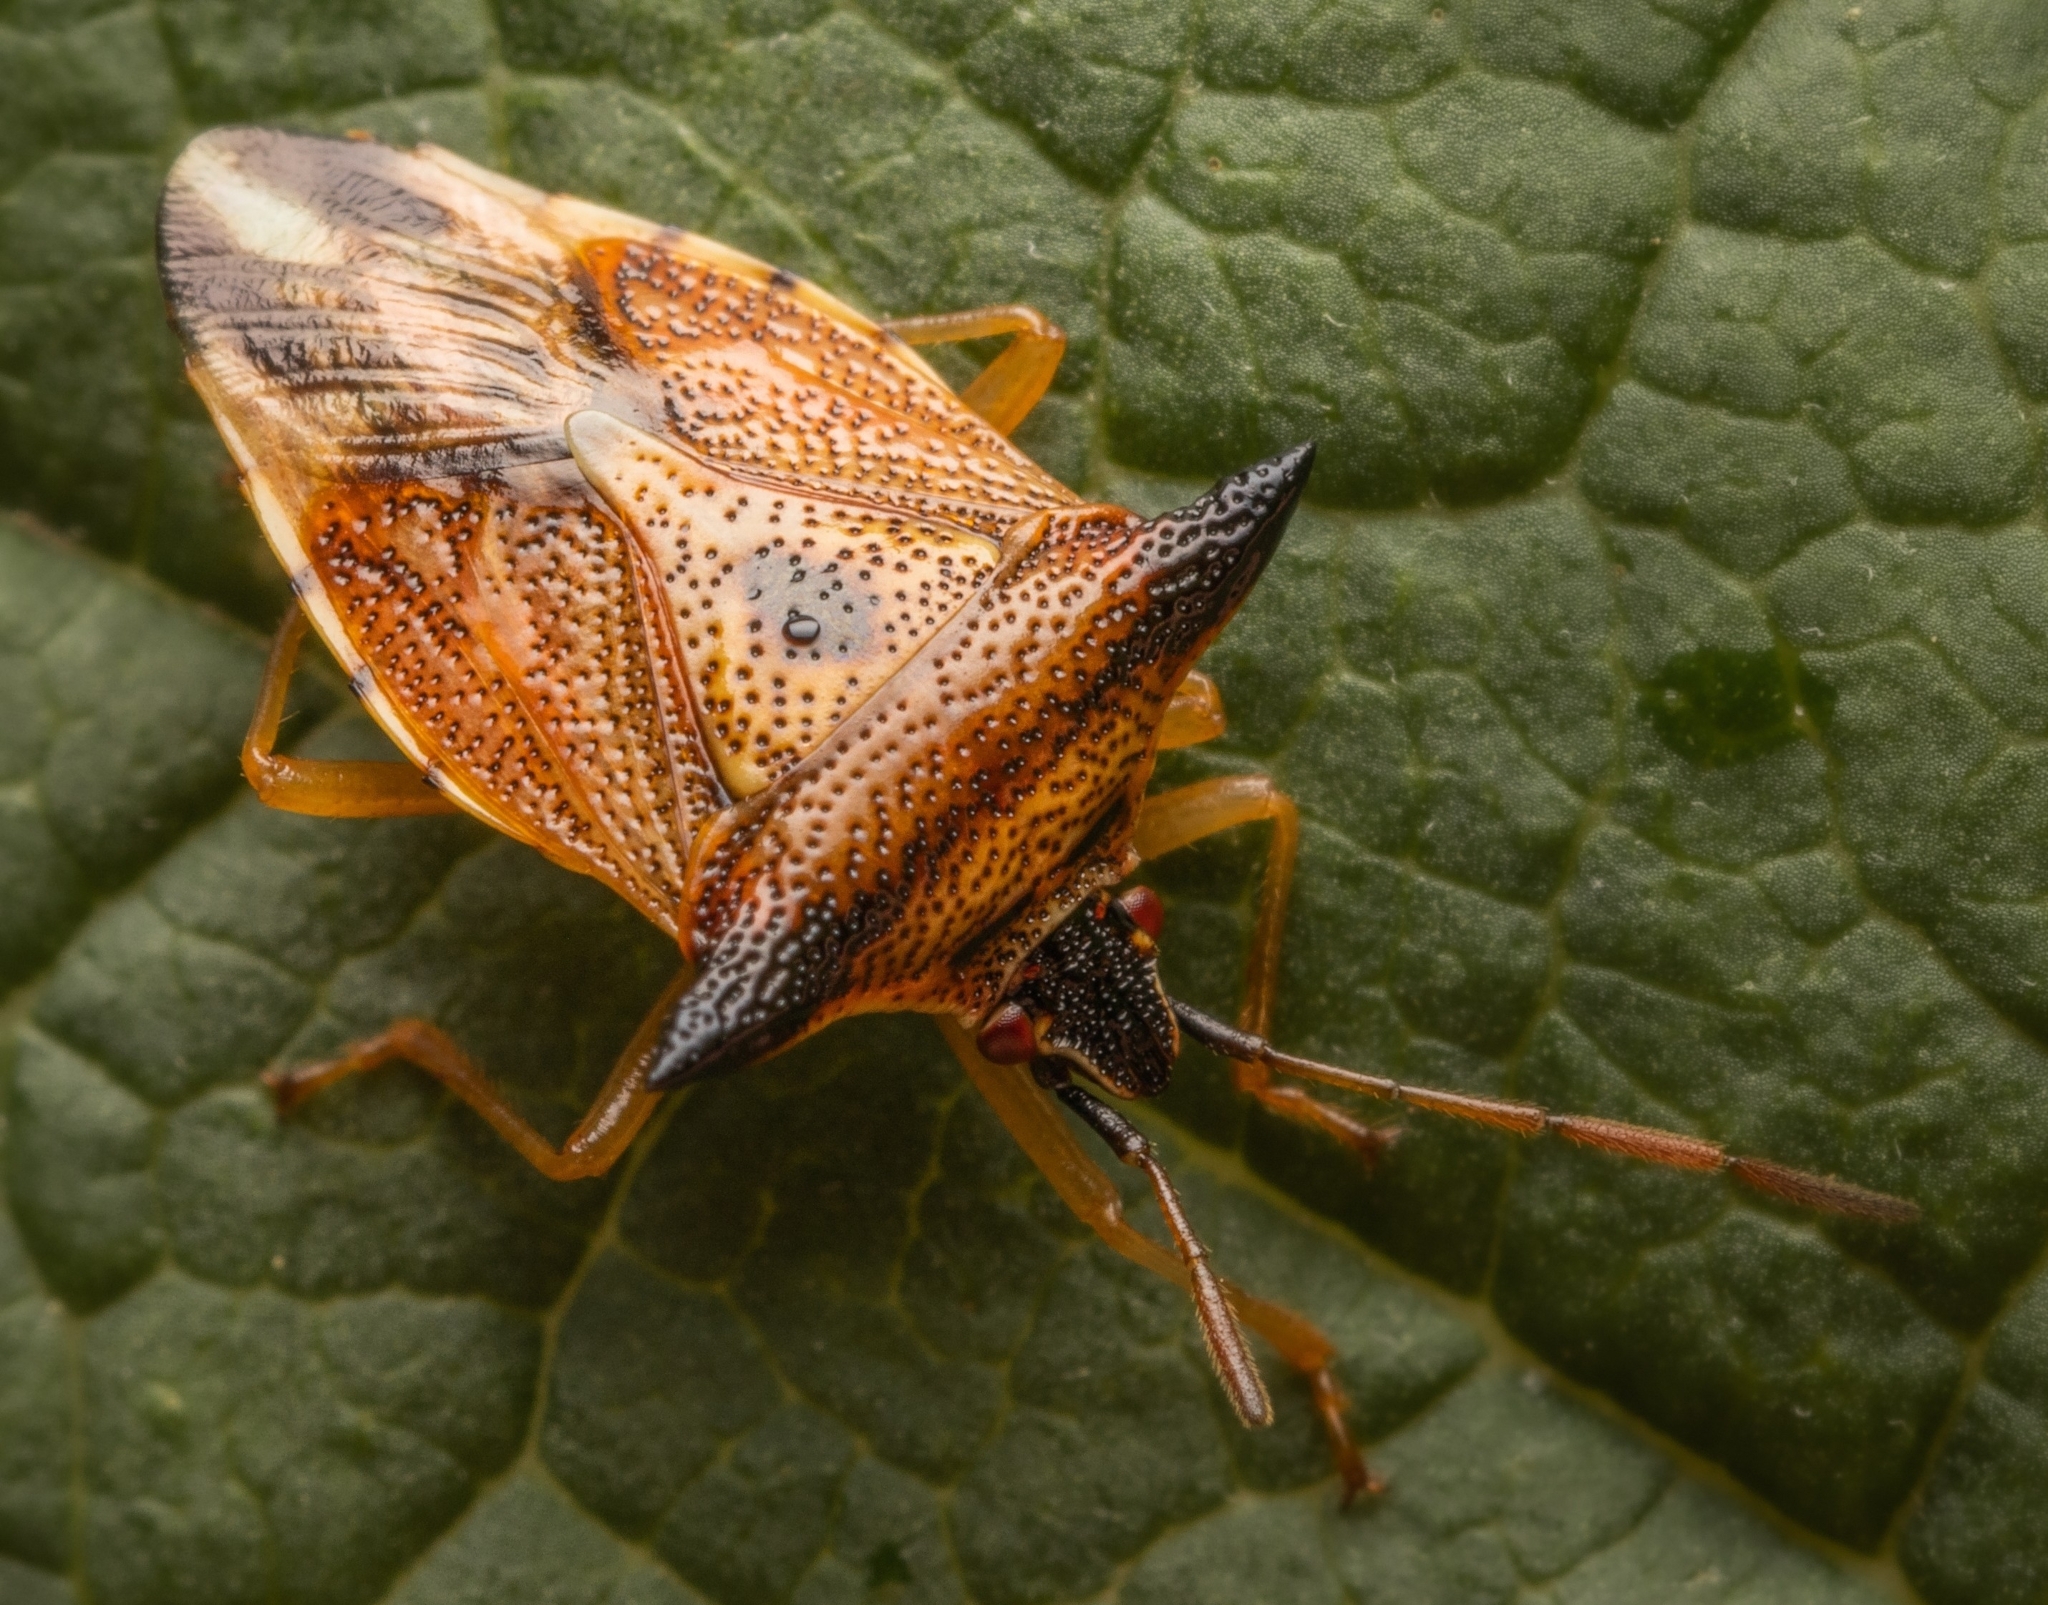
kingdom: Animalia
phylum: Arthropoda
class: Insecta
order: Hemiptera
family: Acanthosomatidae
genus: Elasmucha
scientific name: Elasmucha ferrugata
